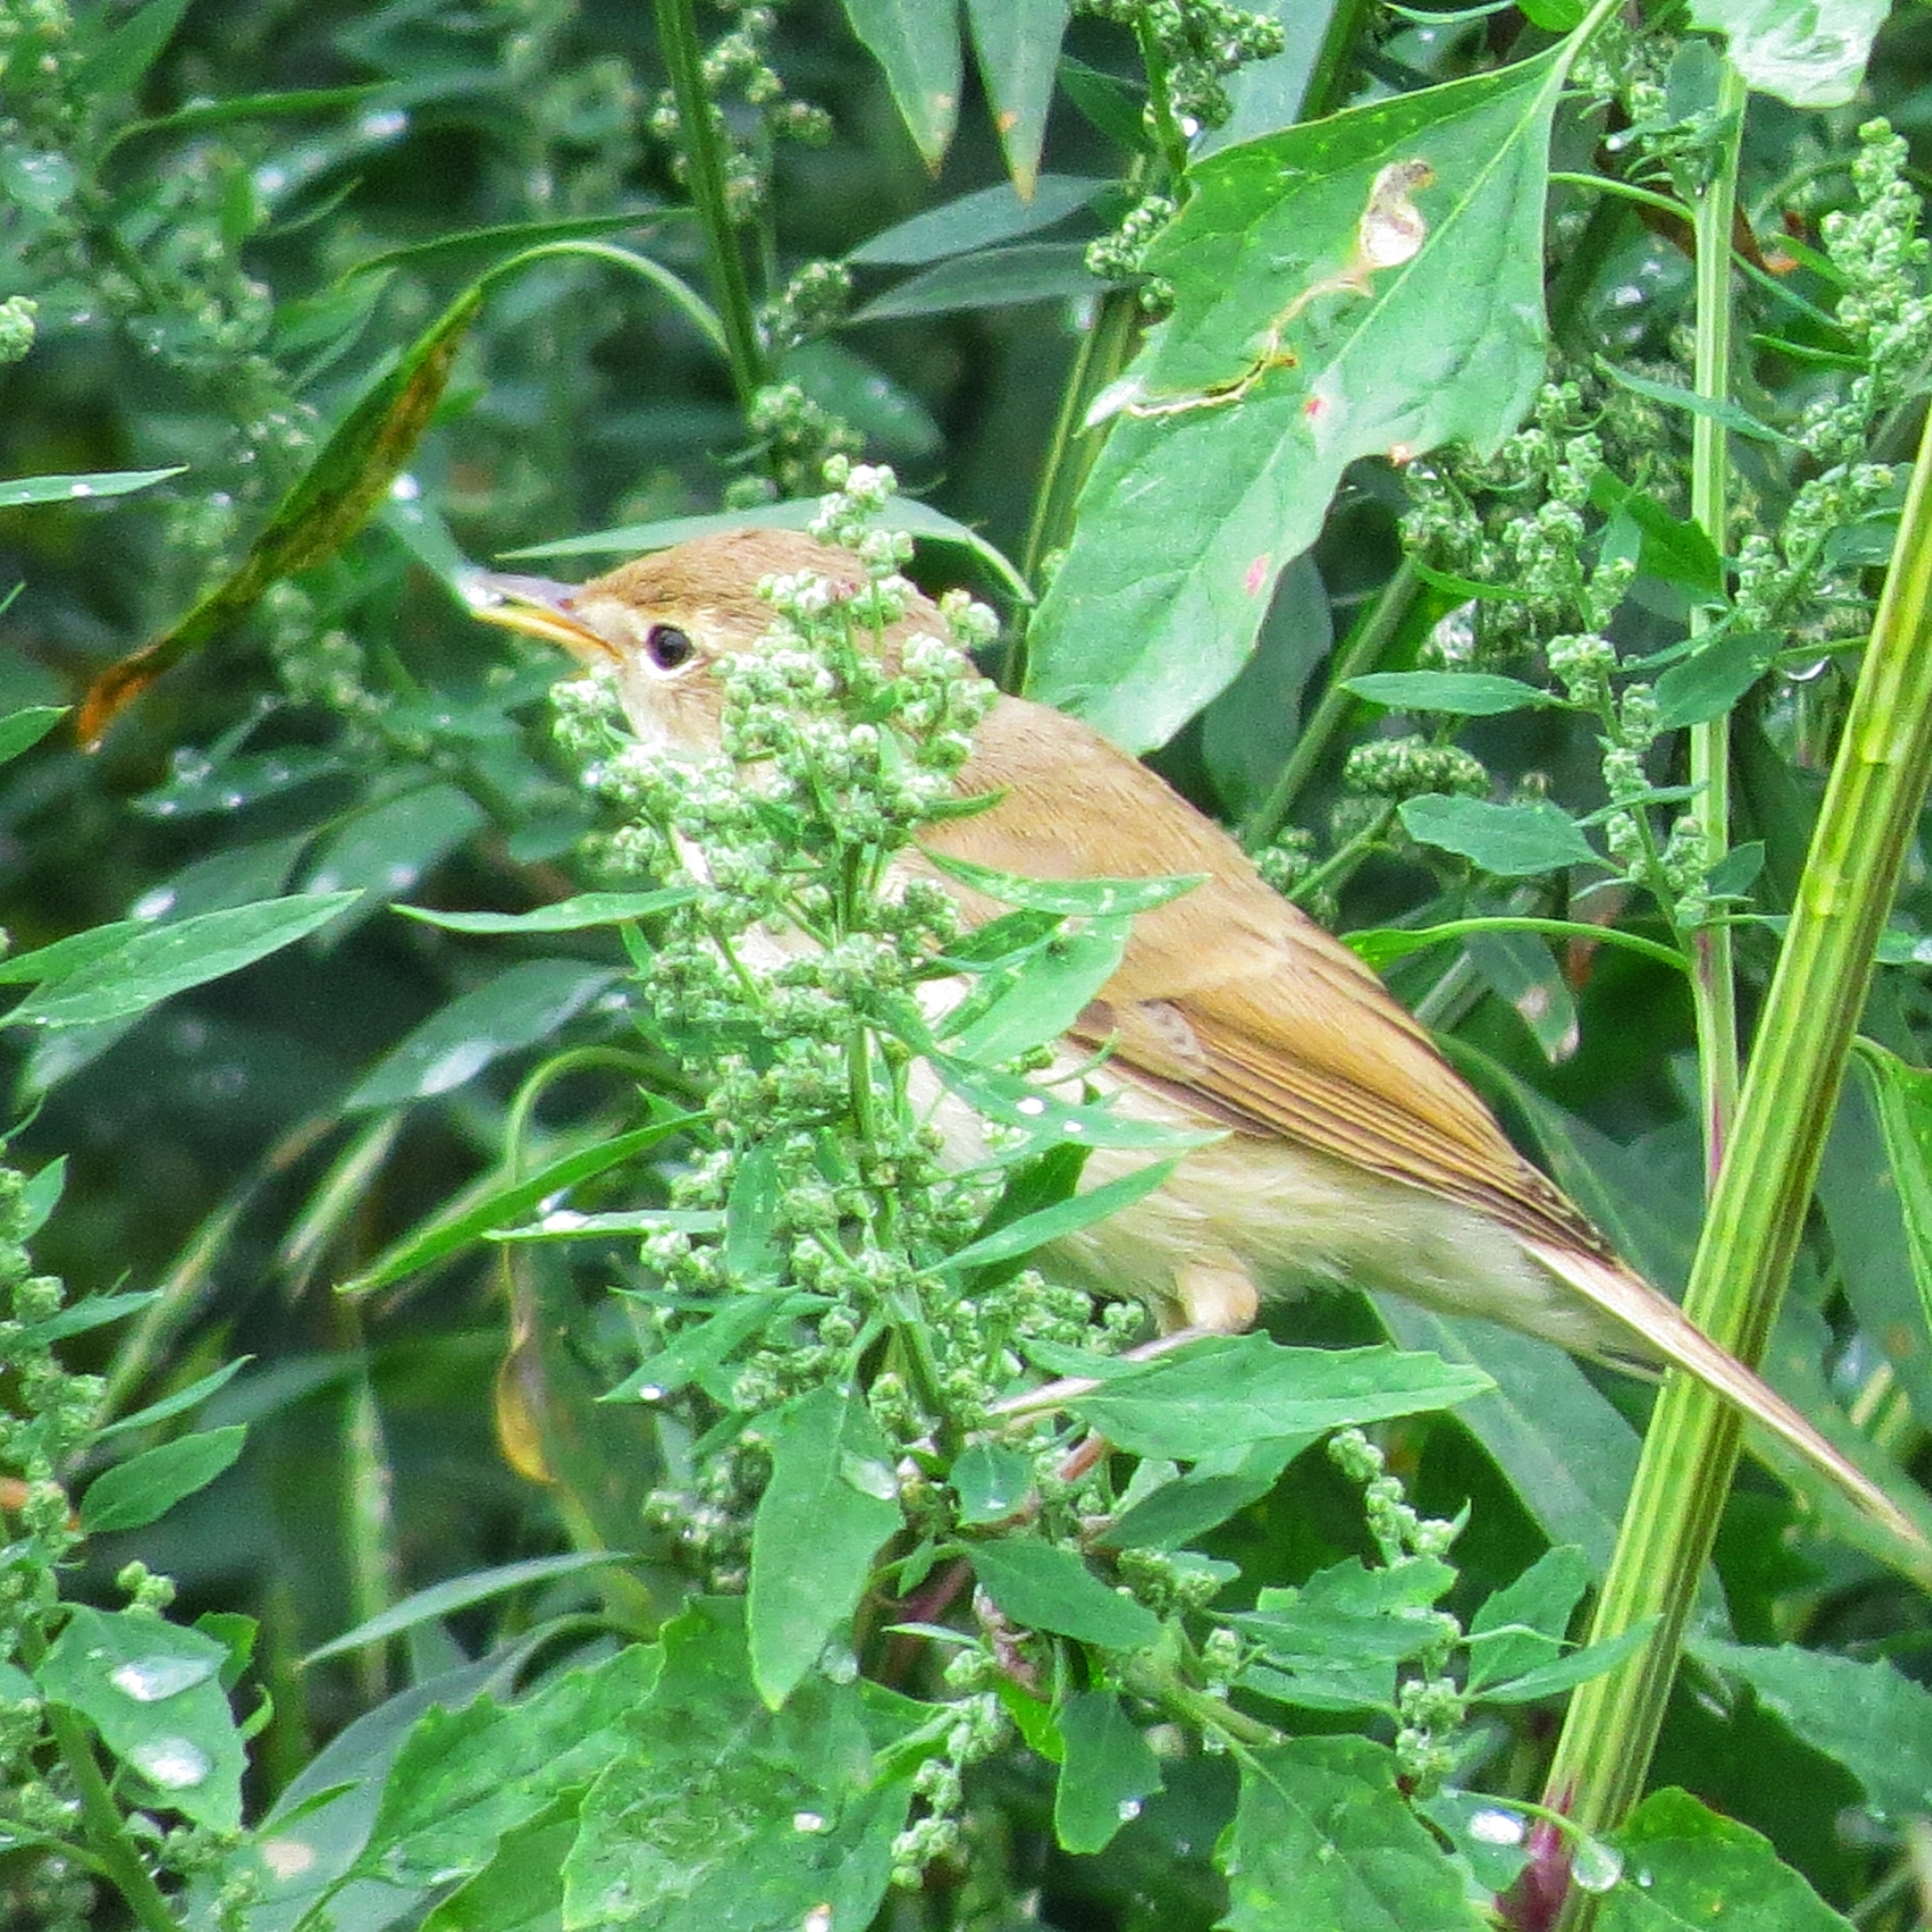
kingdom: Animalia
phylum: Chordata
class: Aves
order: Passeriformes
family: Acrocephalidae
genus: Iduna
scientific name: Iduna caligata
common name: Booted warbler
